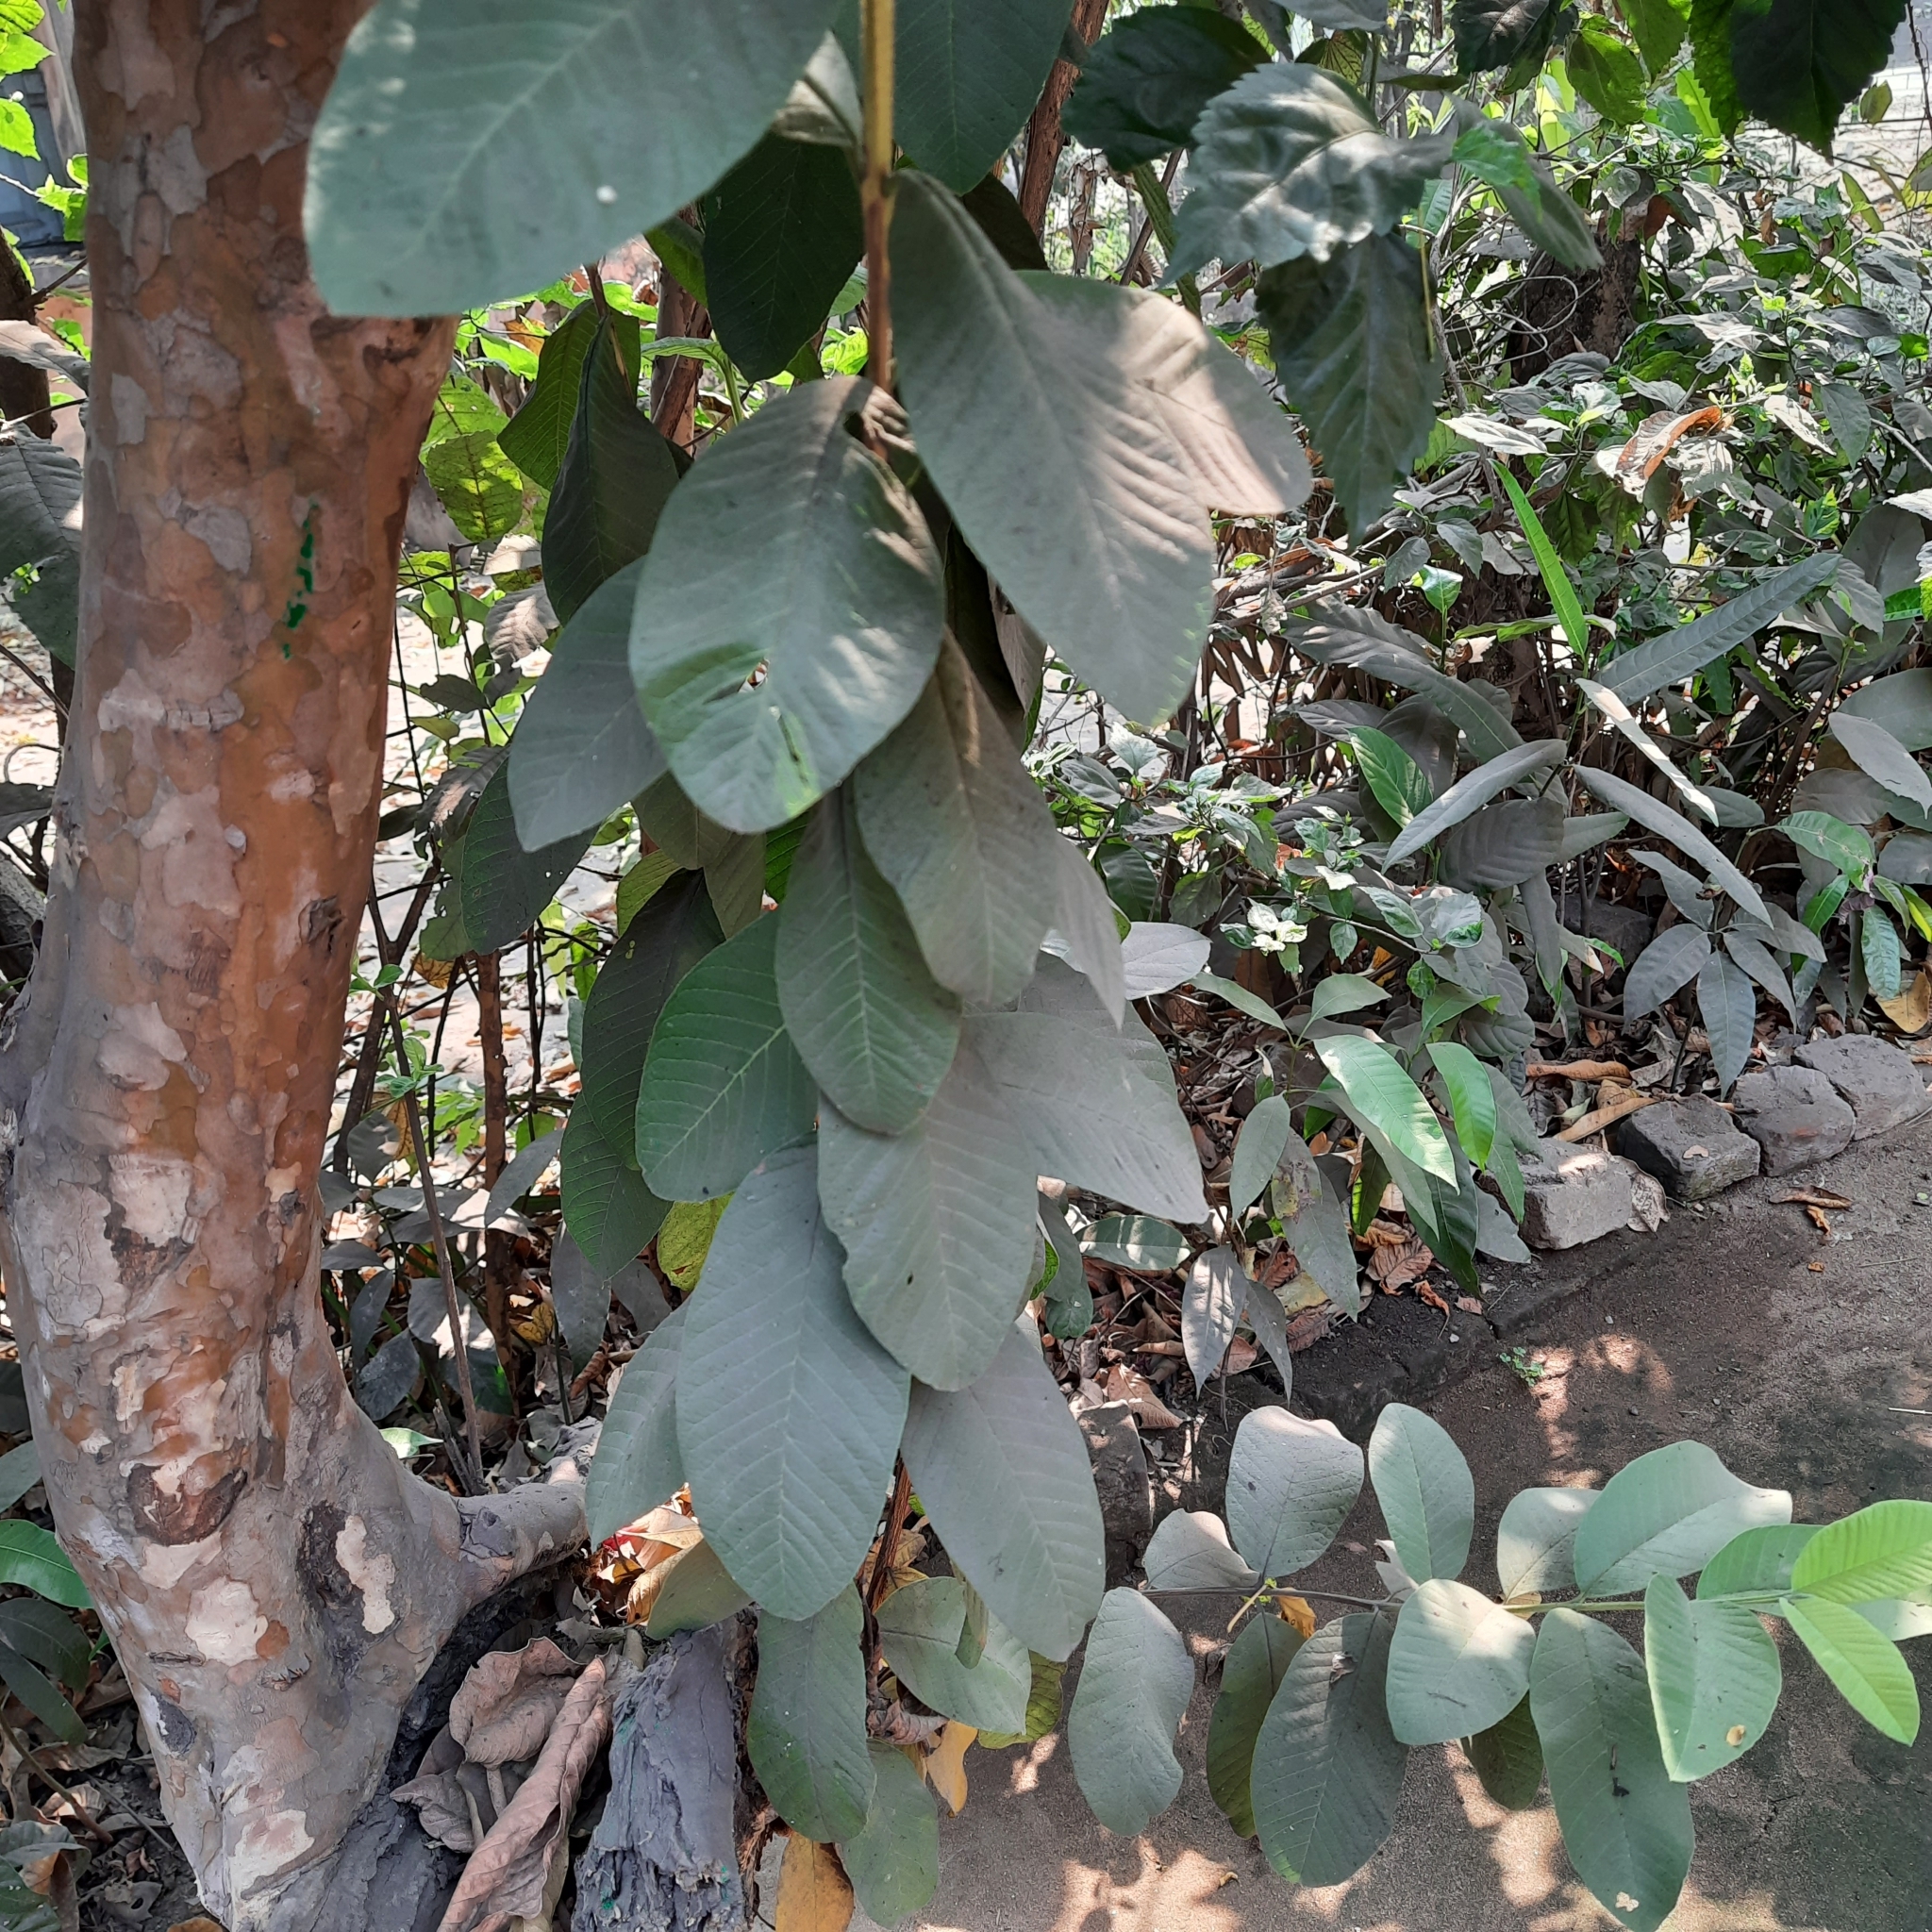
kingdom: Plantae
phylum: Tracheophyta
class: Magnoliopsida
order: Myrtales
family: Myrtaceae
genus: Psidium
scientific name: Psidium guajava
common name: Guava
